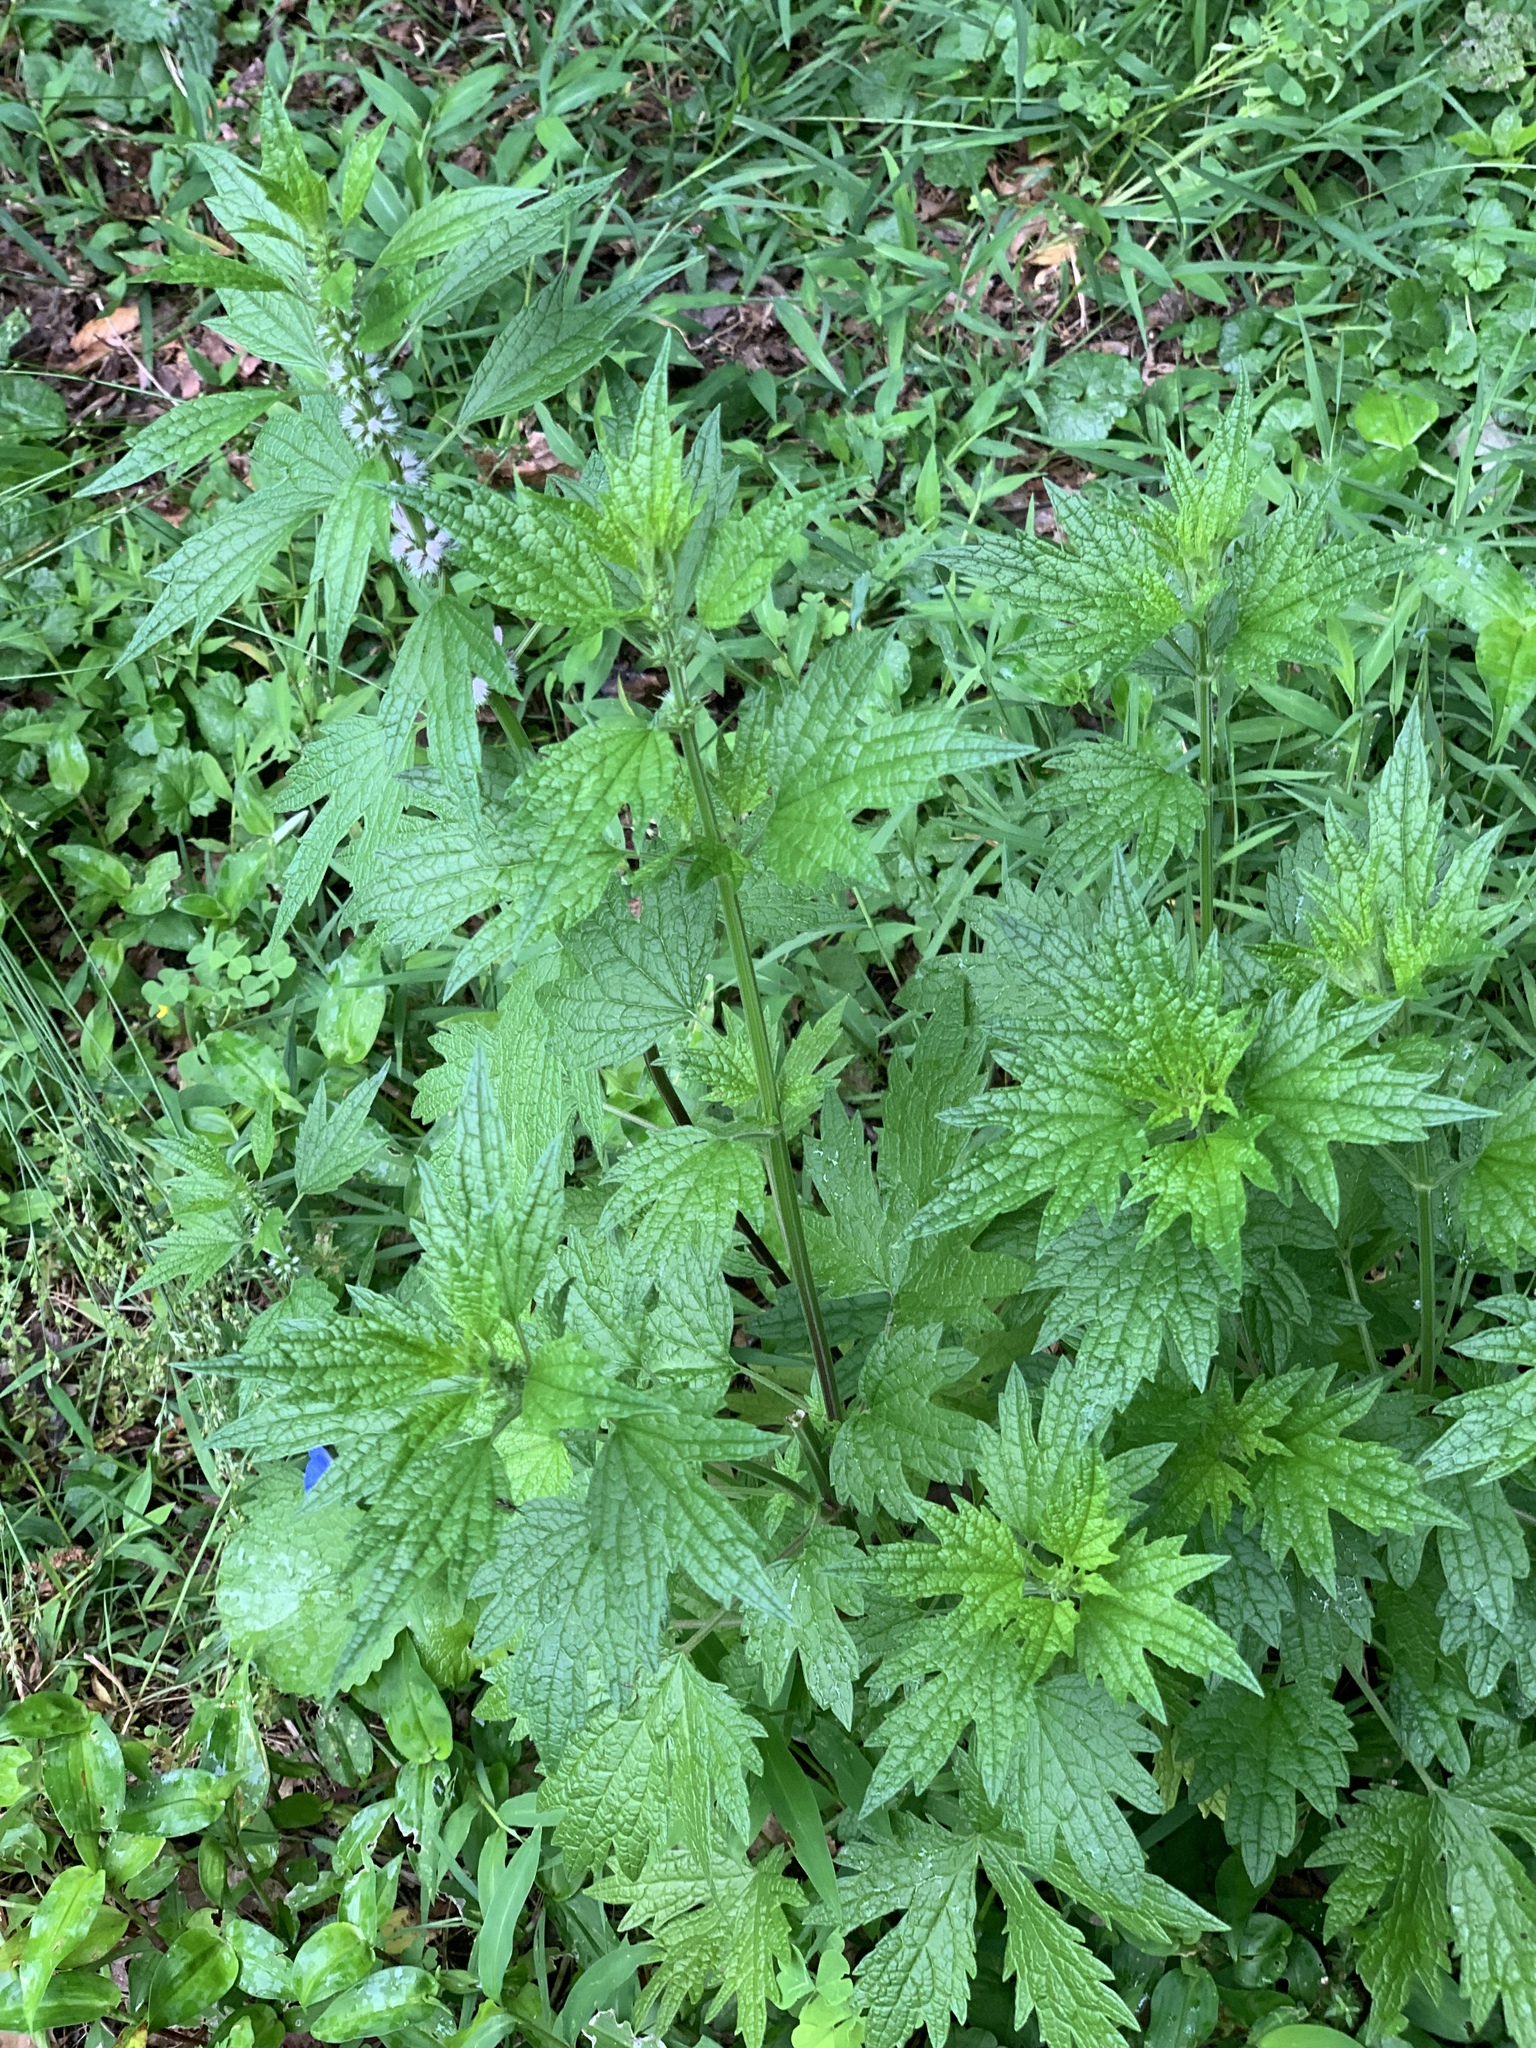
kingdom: Plantae
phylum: Tracheophyta
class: Magnoliopsida
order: Lamiales
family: Lamiaceae
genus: Leonurus
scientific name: Leonurus cardiaca
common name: Motherwort
